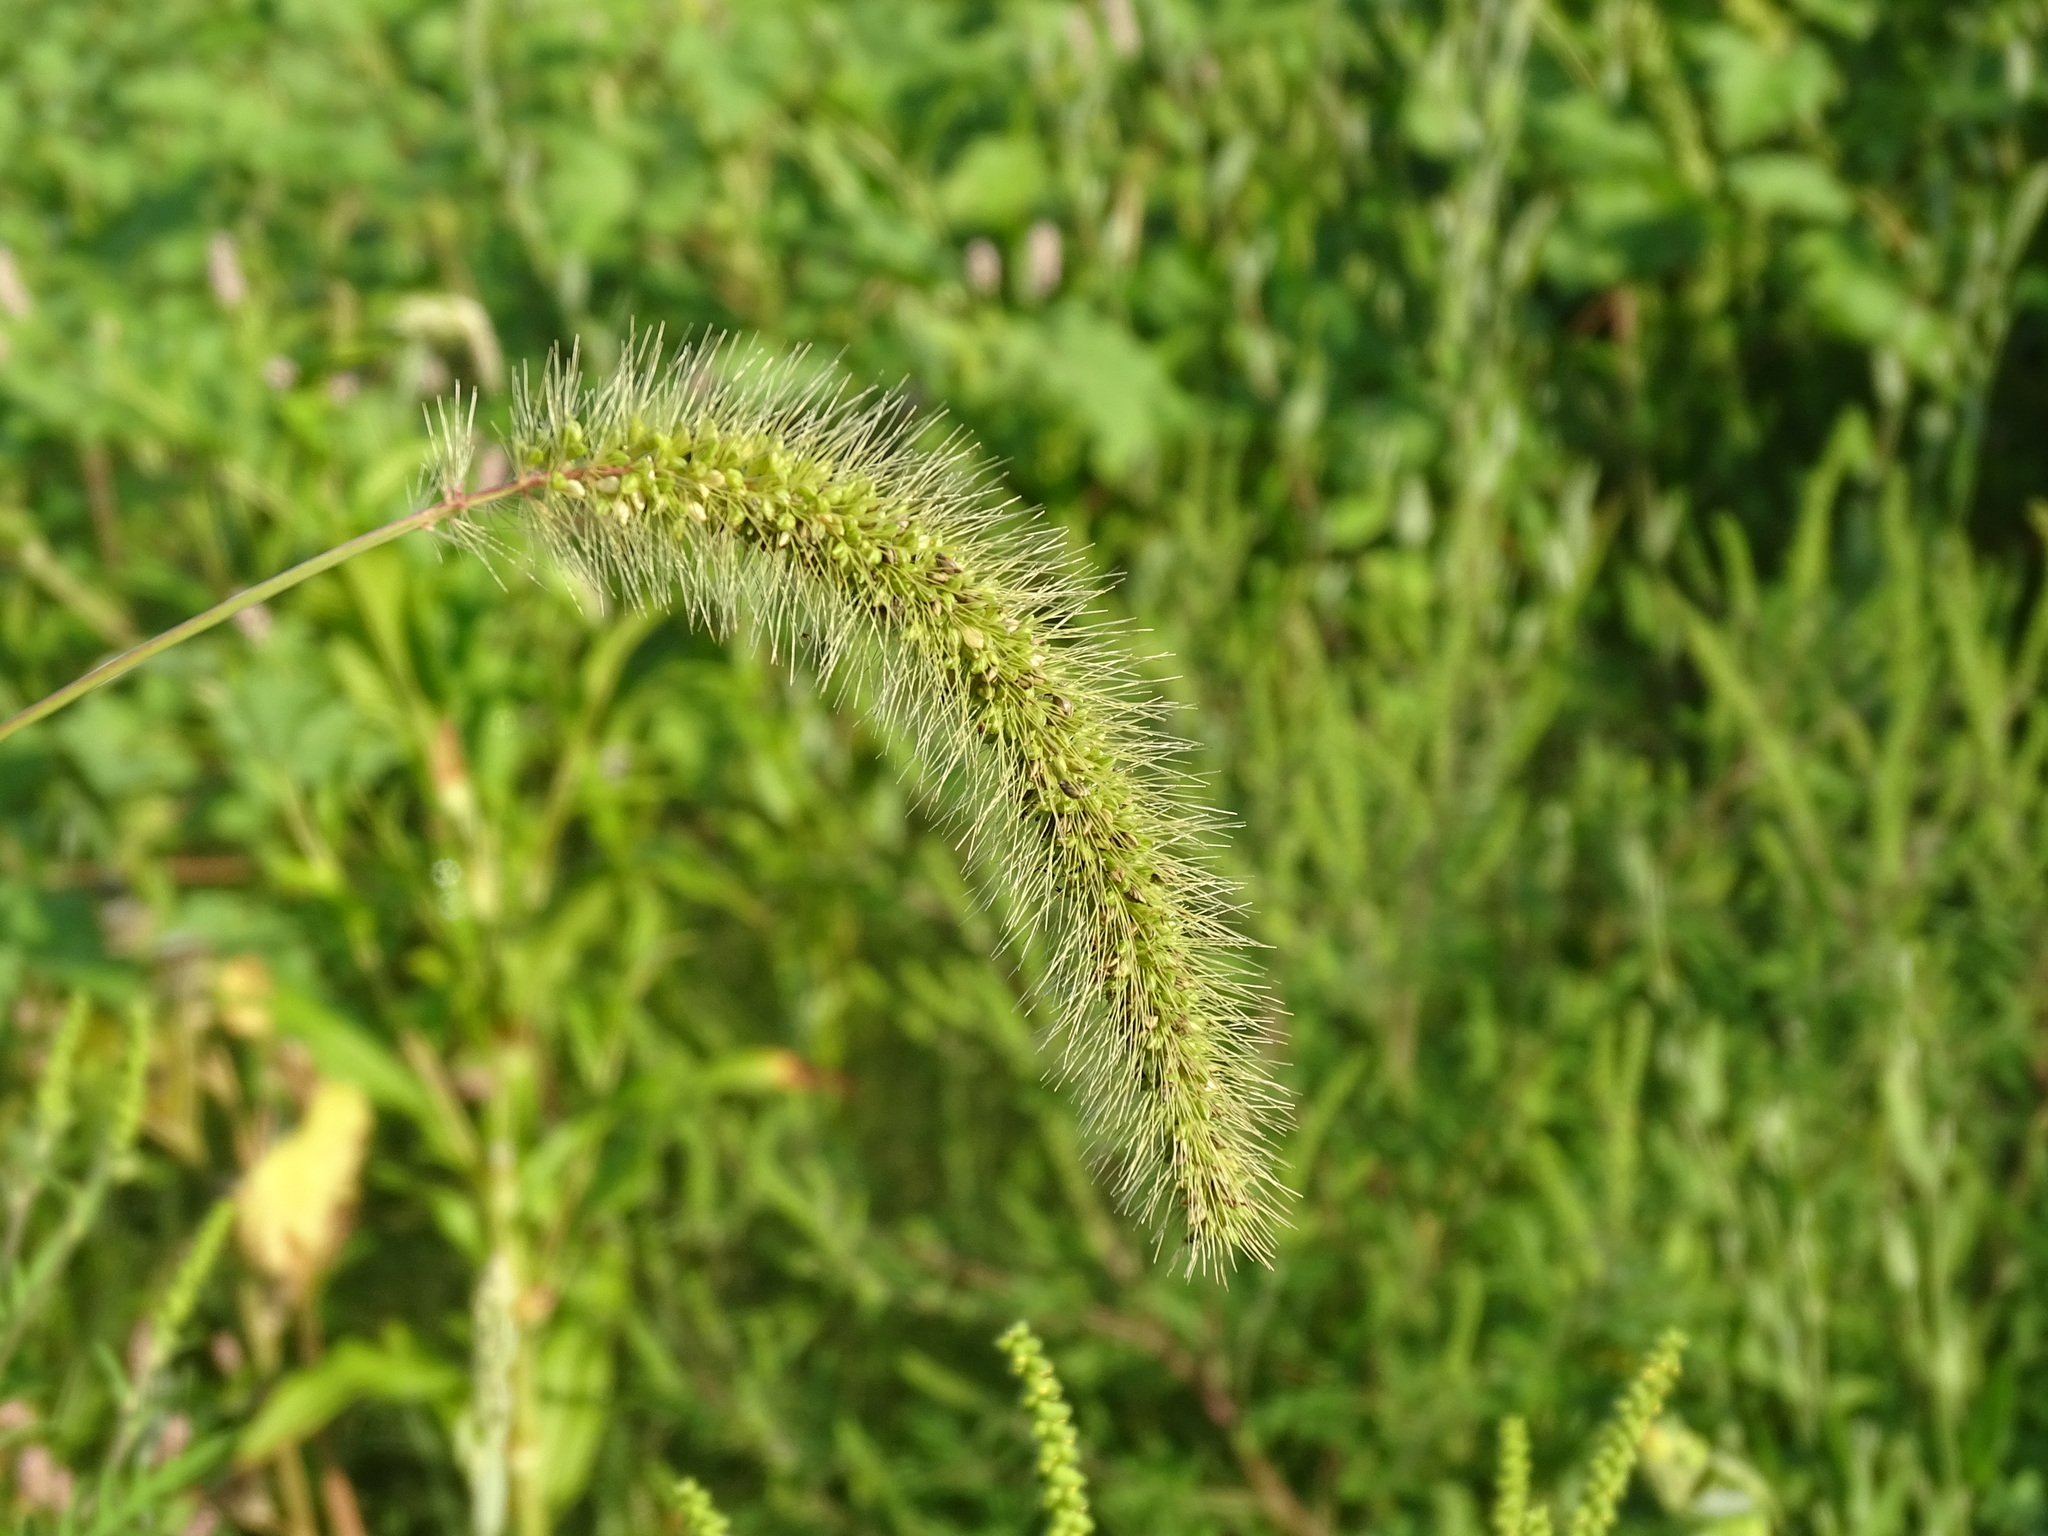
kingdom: Plantae
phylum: Tracheophyta
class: Liliopsida
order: Poales
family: Poaceae
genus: Setaria
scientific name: Setaria faberi
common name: Nodding bristle-grass
